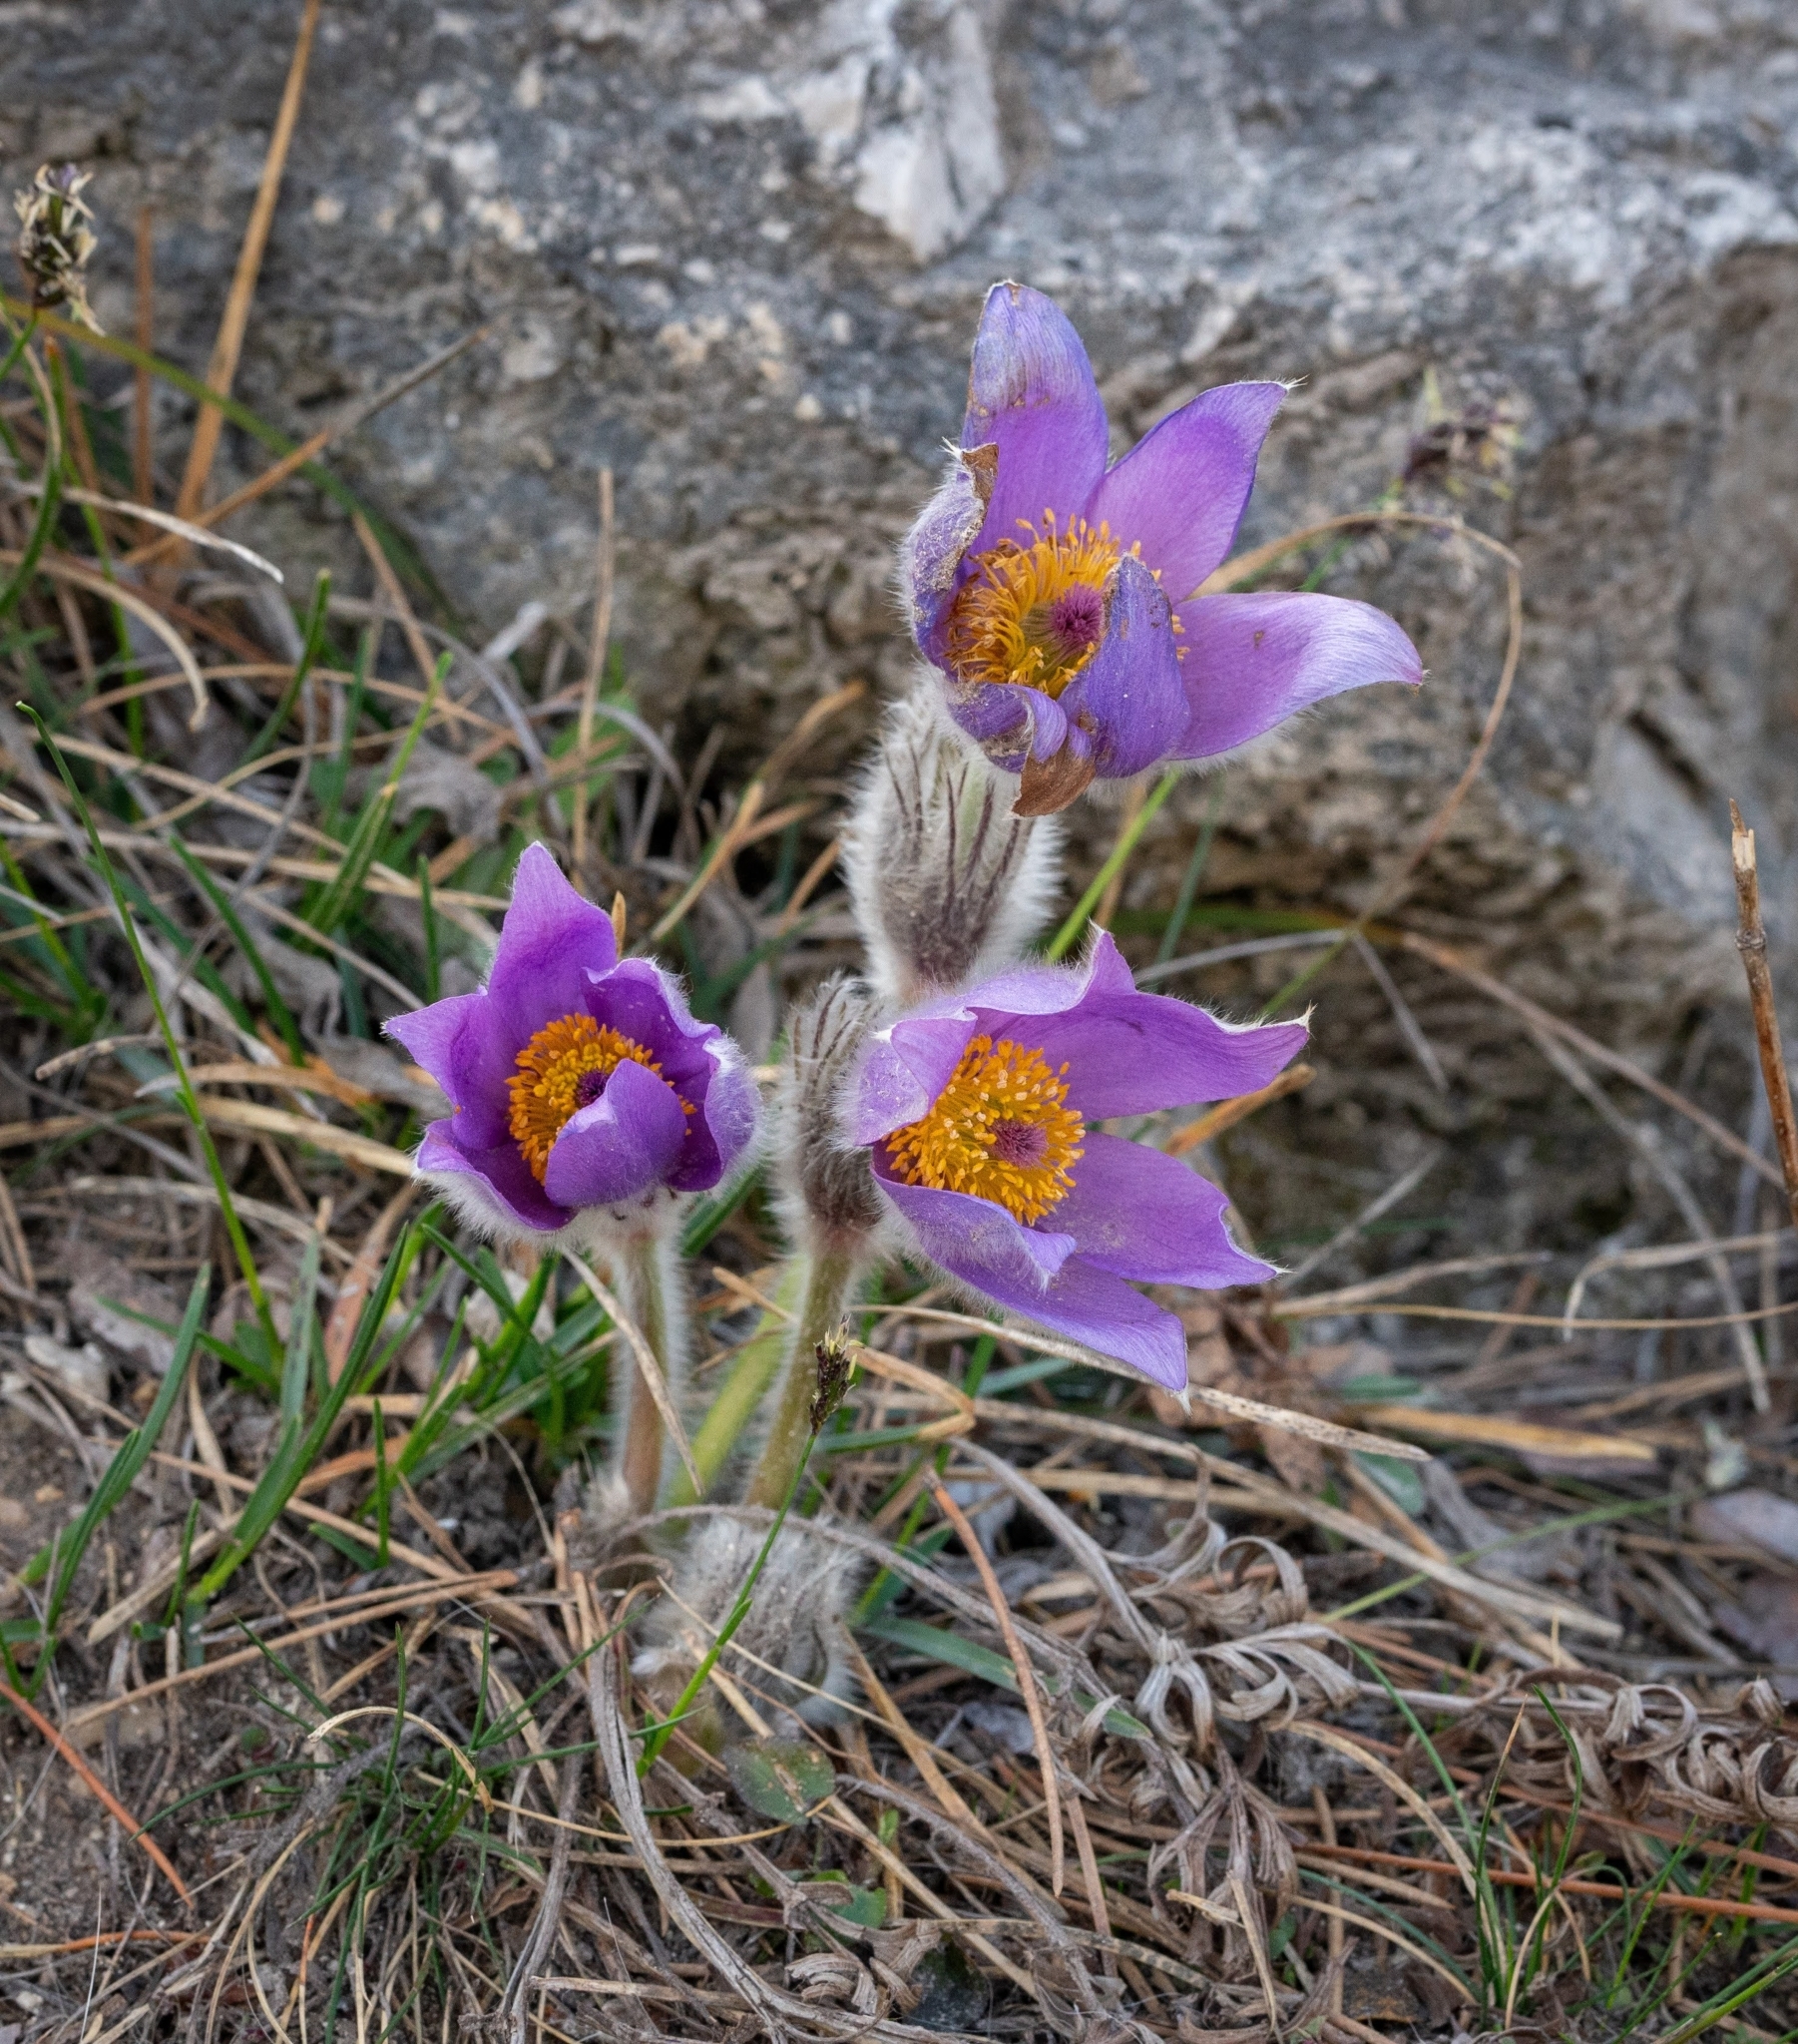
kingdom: Plantae
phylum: Tracheophyta
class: Magnoliopsida
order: Ranunculales
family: Ranunculaceae
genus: Pulsatilla
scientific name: Pulsatilla grandis
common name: Greater pasque flower
